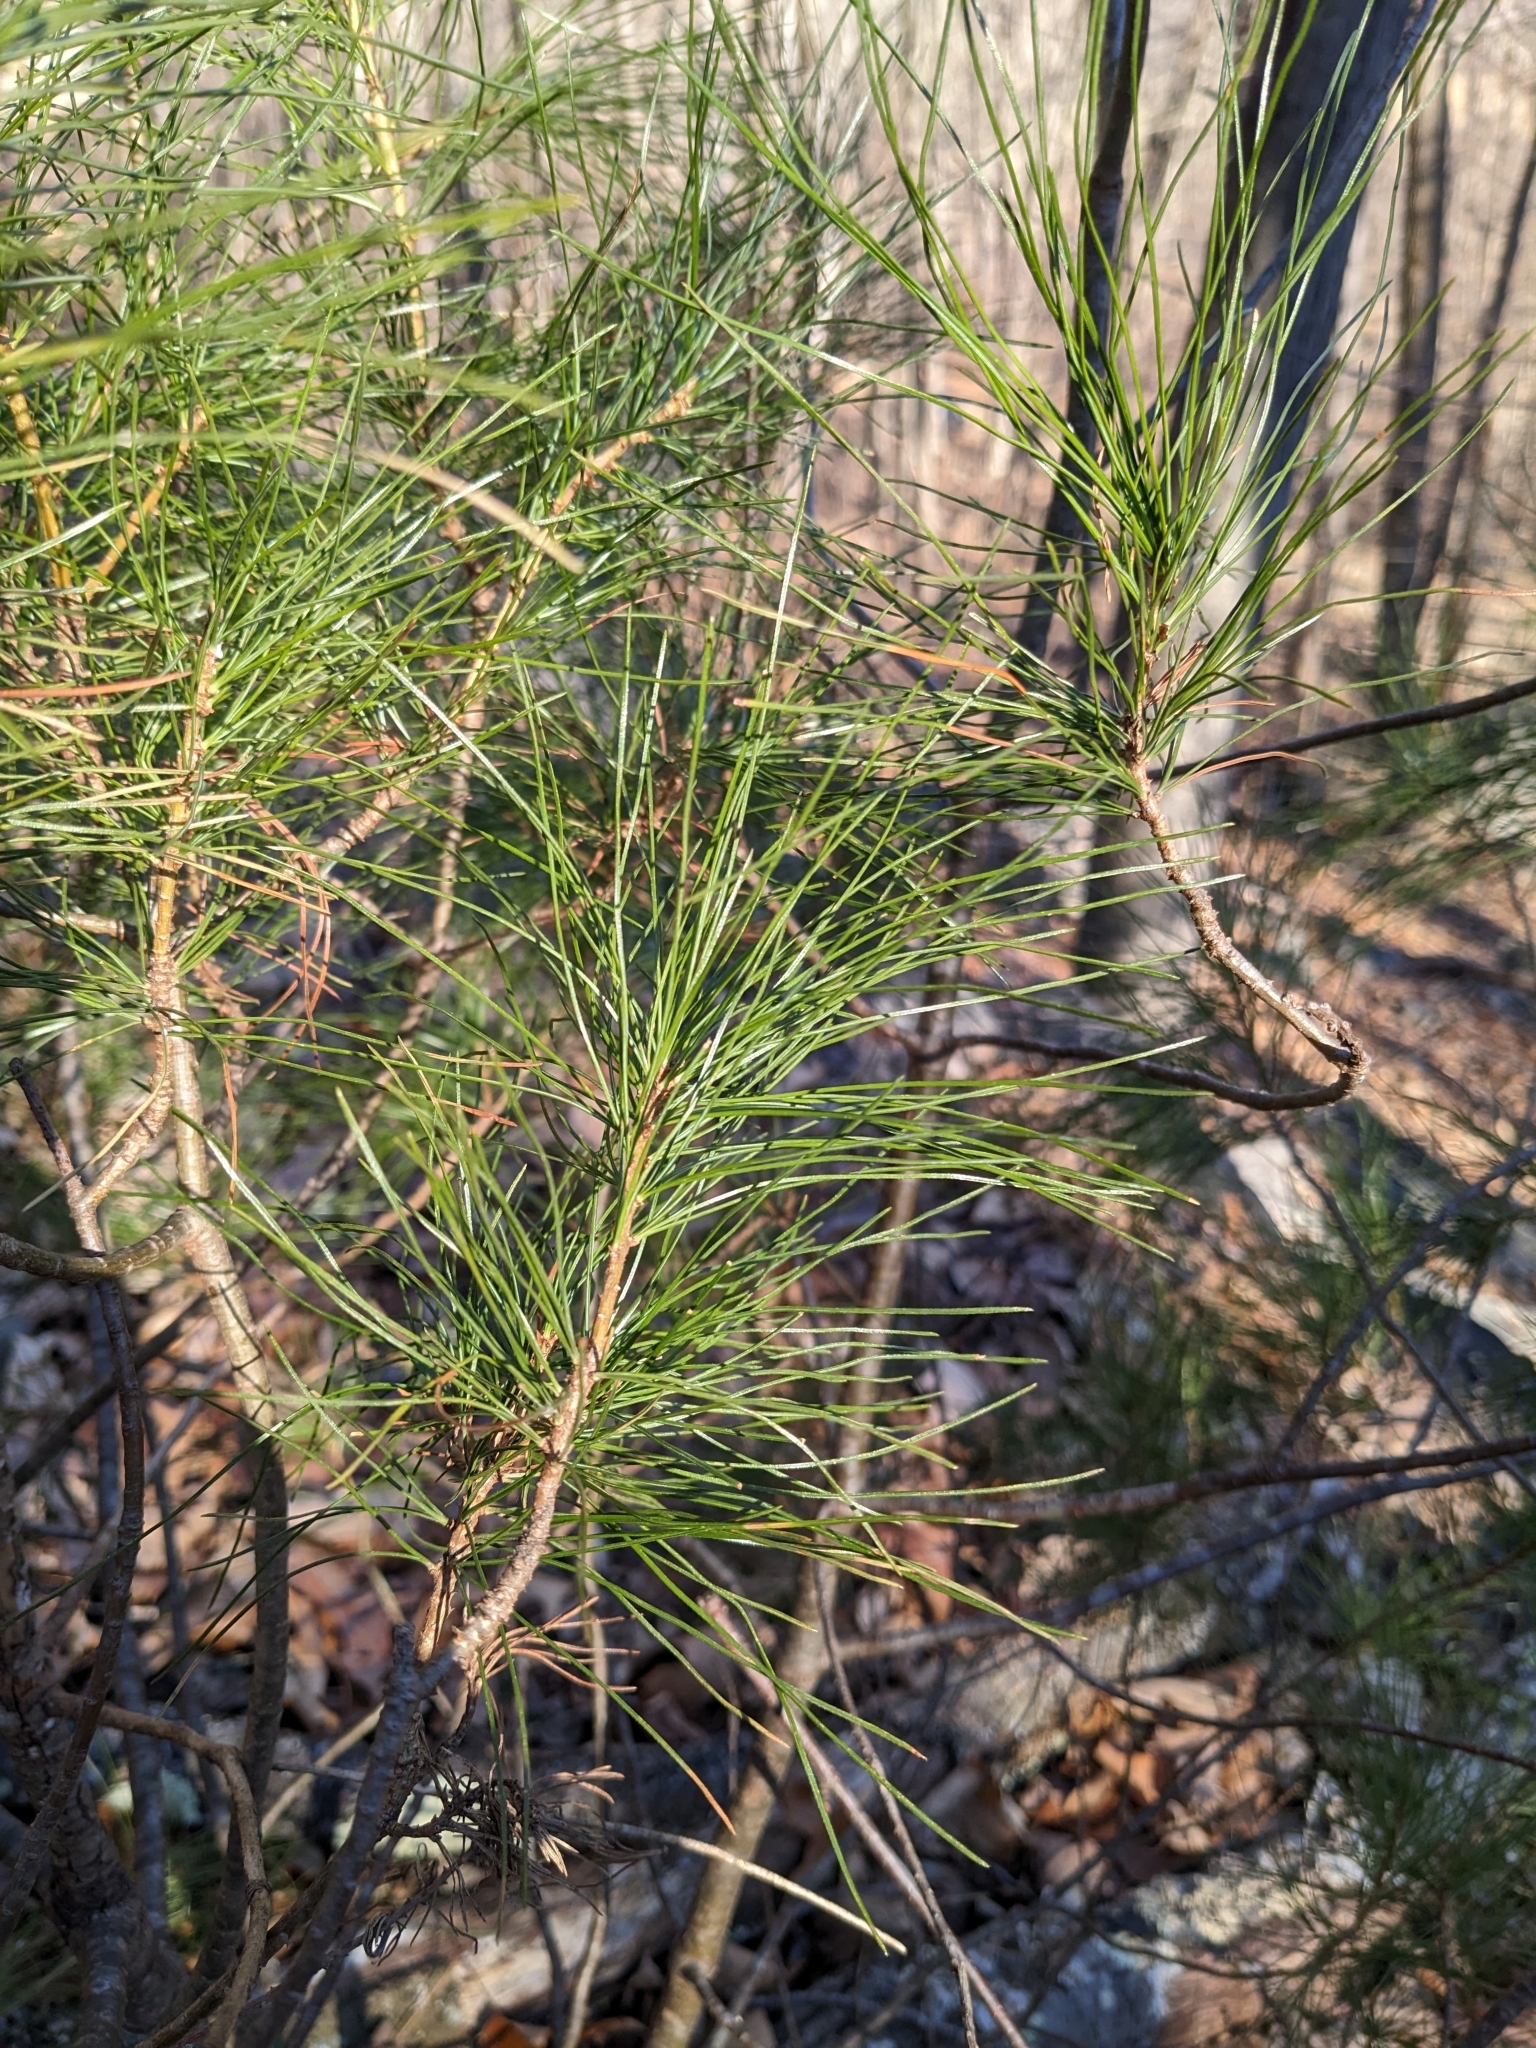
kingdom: Plantae
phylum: Tracheophyta
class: Pinopsida
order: Pinales
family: Pinaceae
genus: Pinus
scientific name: Pinus strobus
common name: Weymouth pine
